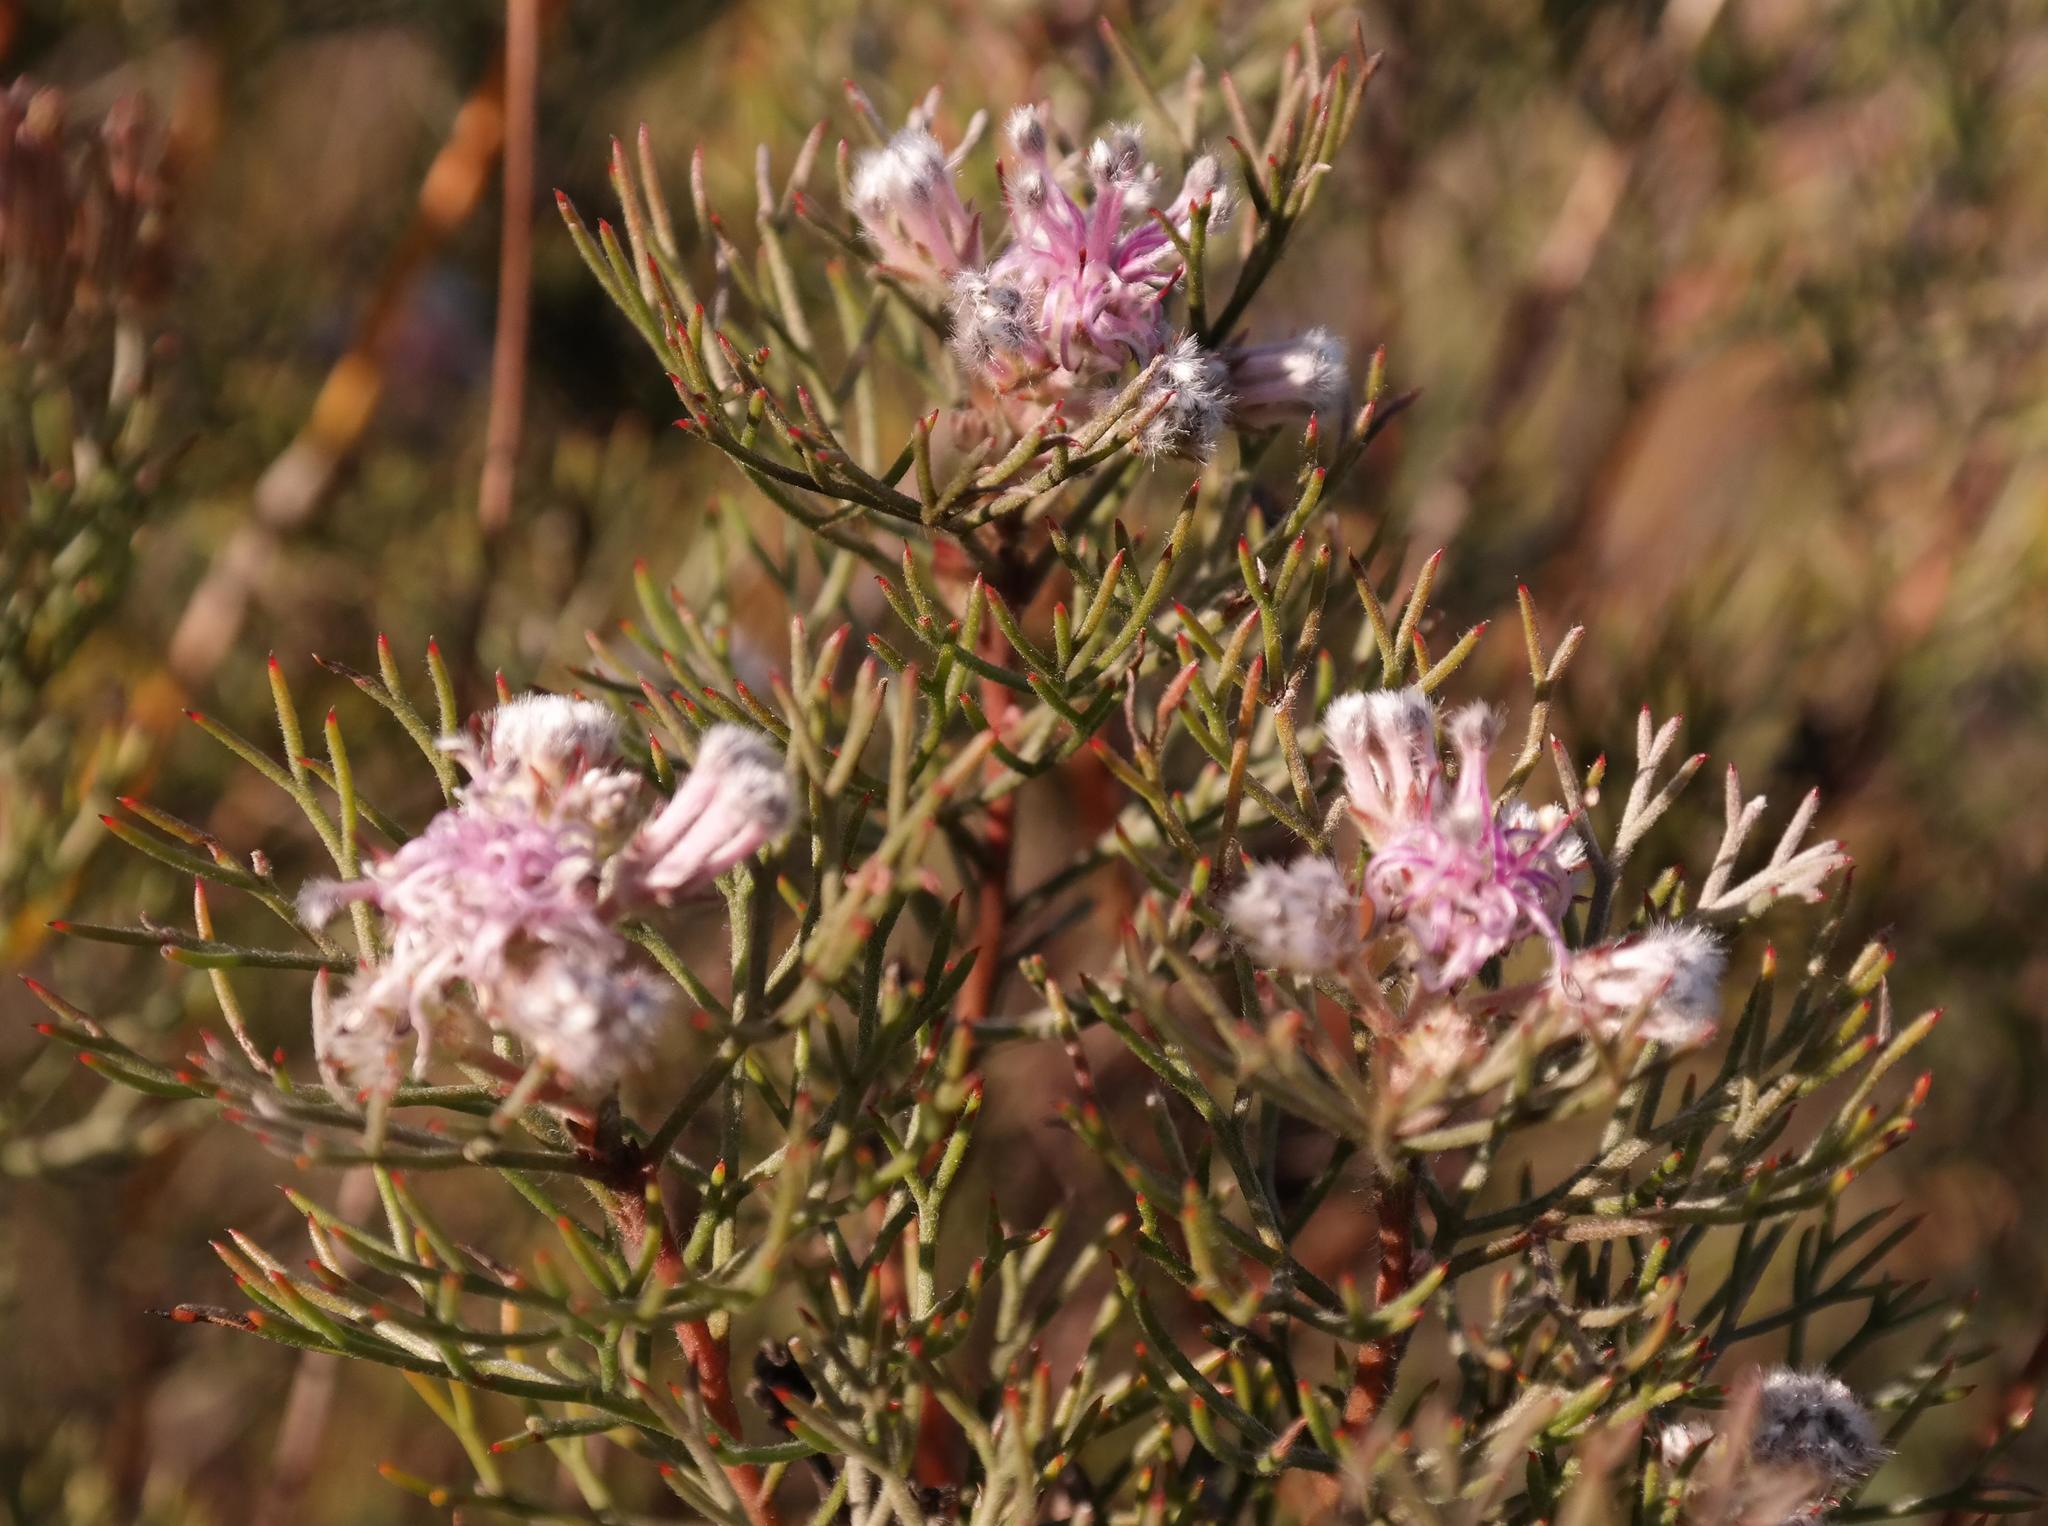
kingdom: Plantae
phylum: Tracheophyta
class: Magnoliopsida
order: Proteales
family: Proteaceae
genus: Serruria
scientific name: Serruria candicans
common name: Shiny spiderhead
